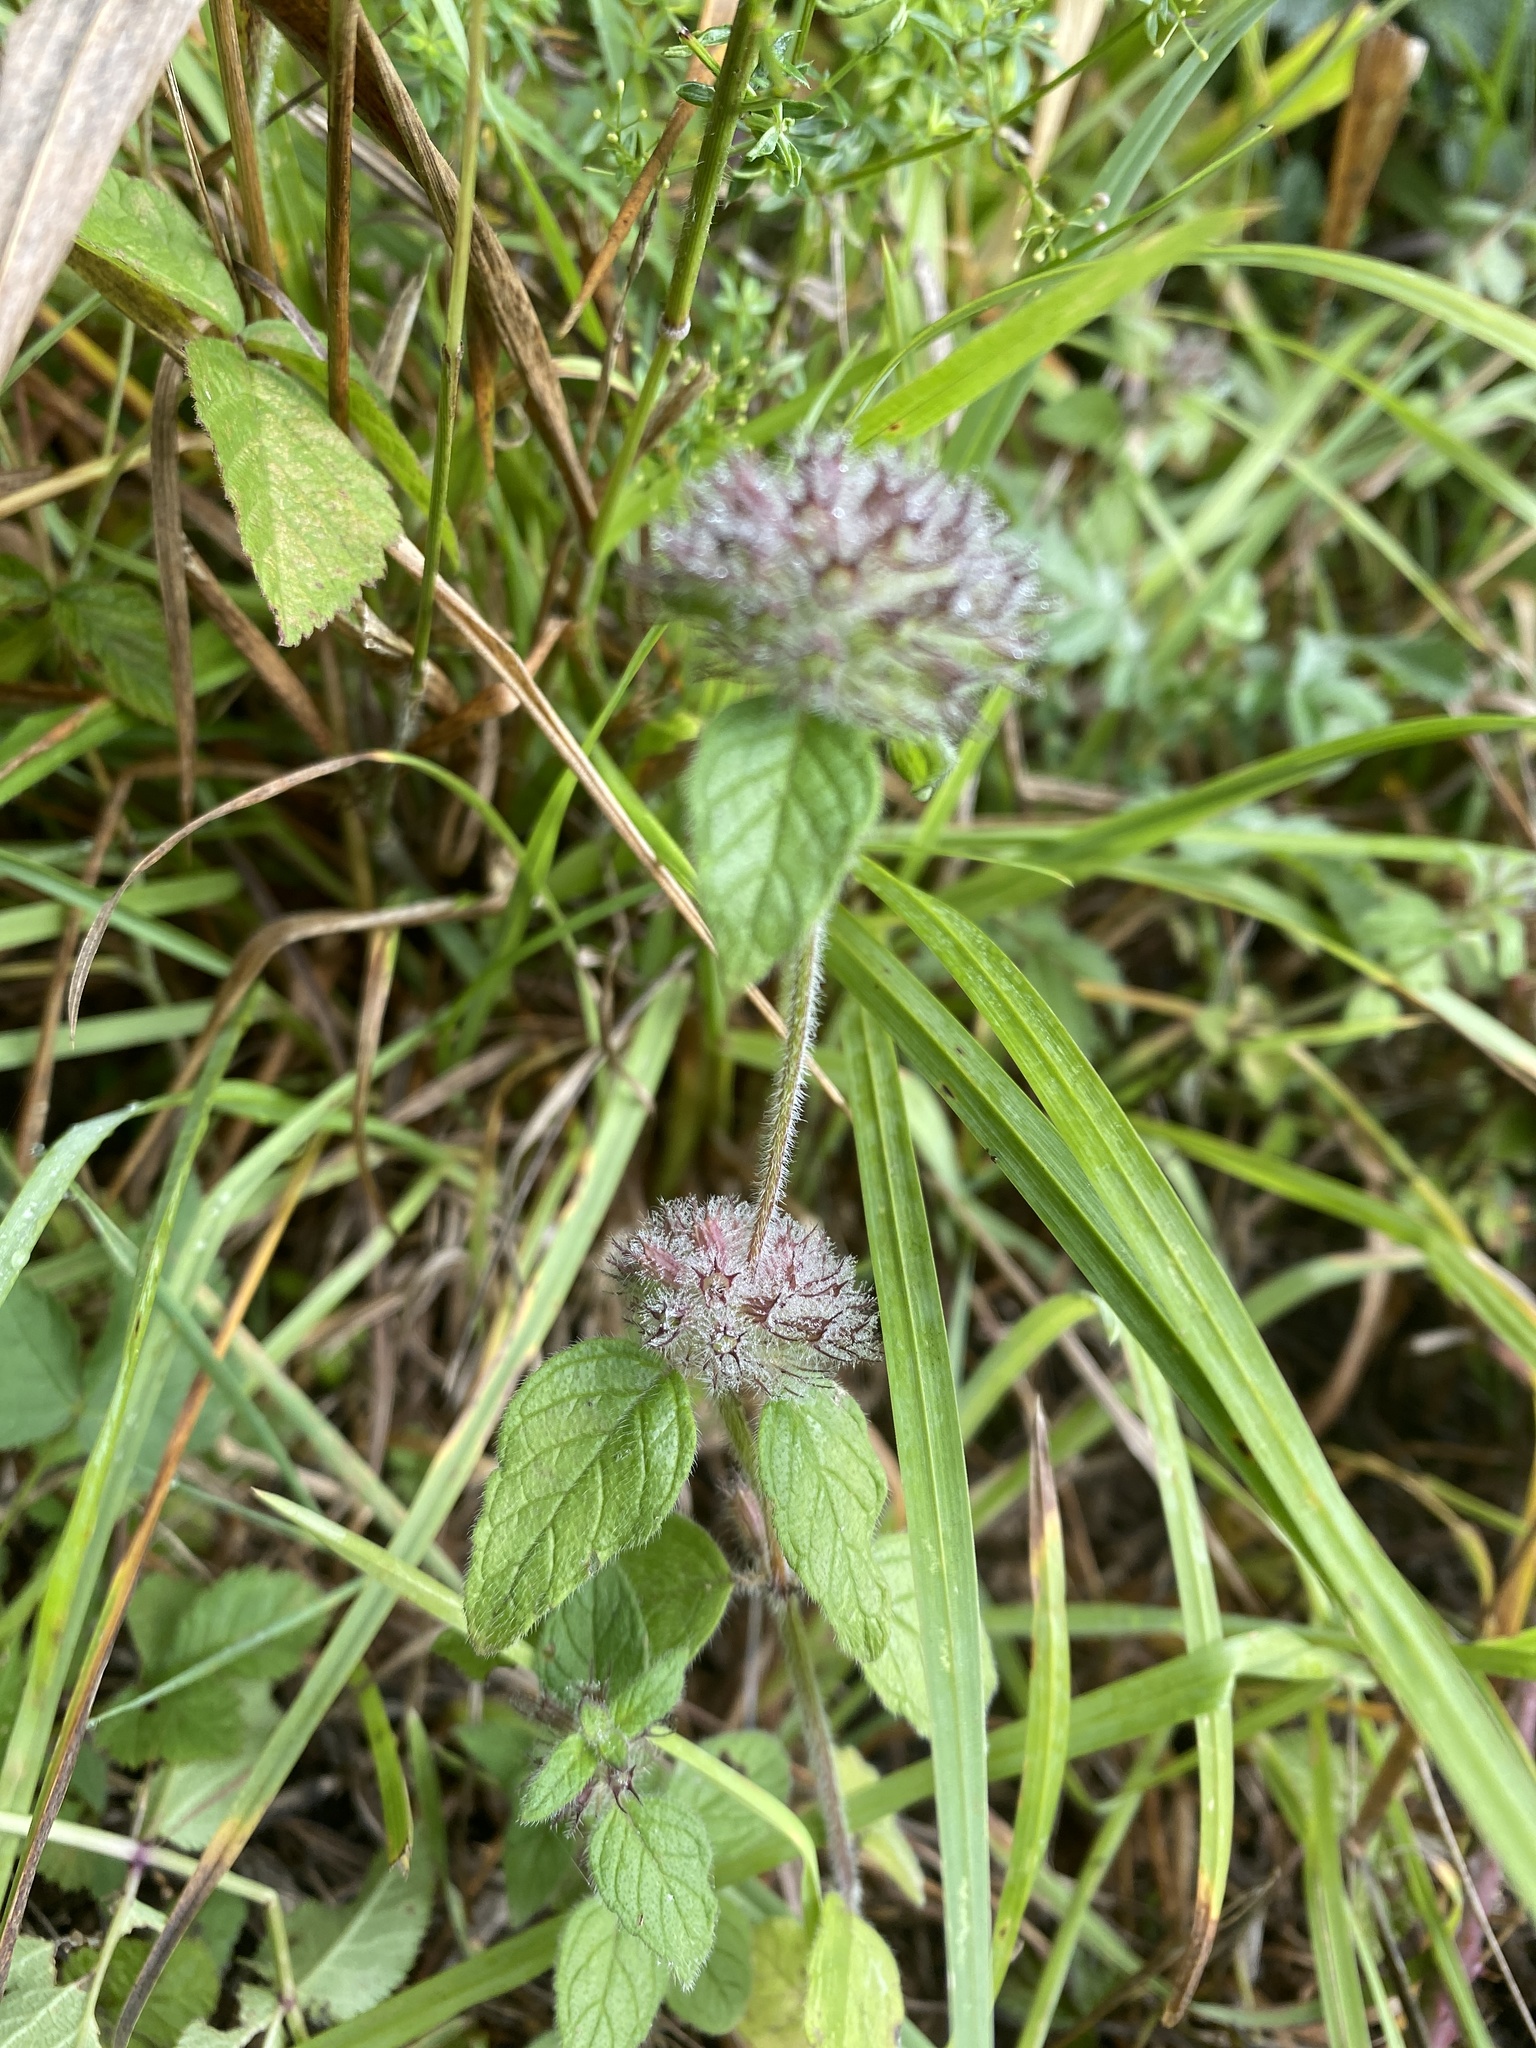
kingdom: Plantae
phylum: Tracheophyta
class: Magnoliopsida
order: Lamiales
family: Lamiaceae
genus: Clinopodium
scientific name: Clinopodium vulgare
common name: Wild basil
